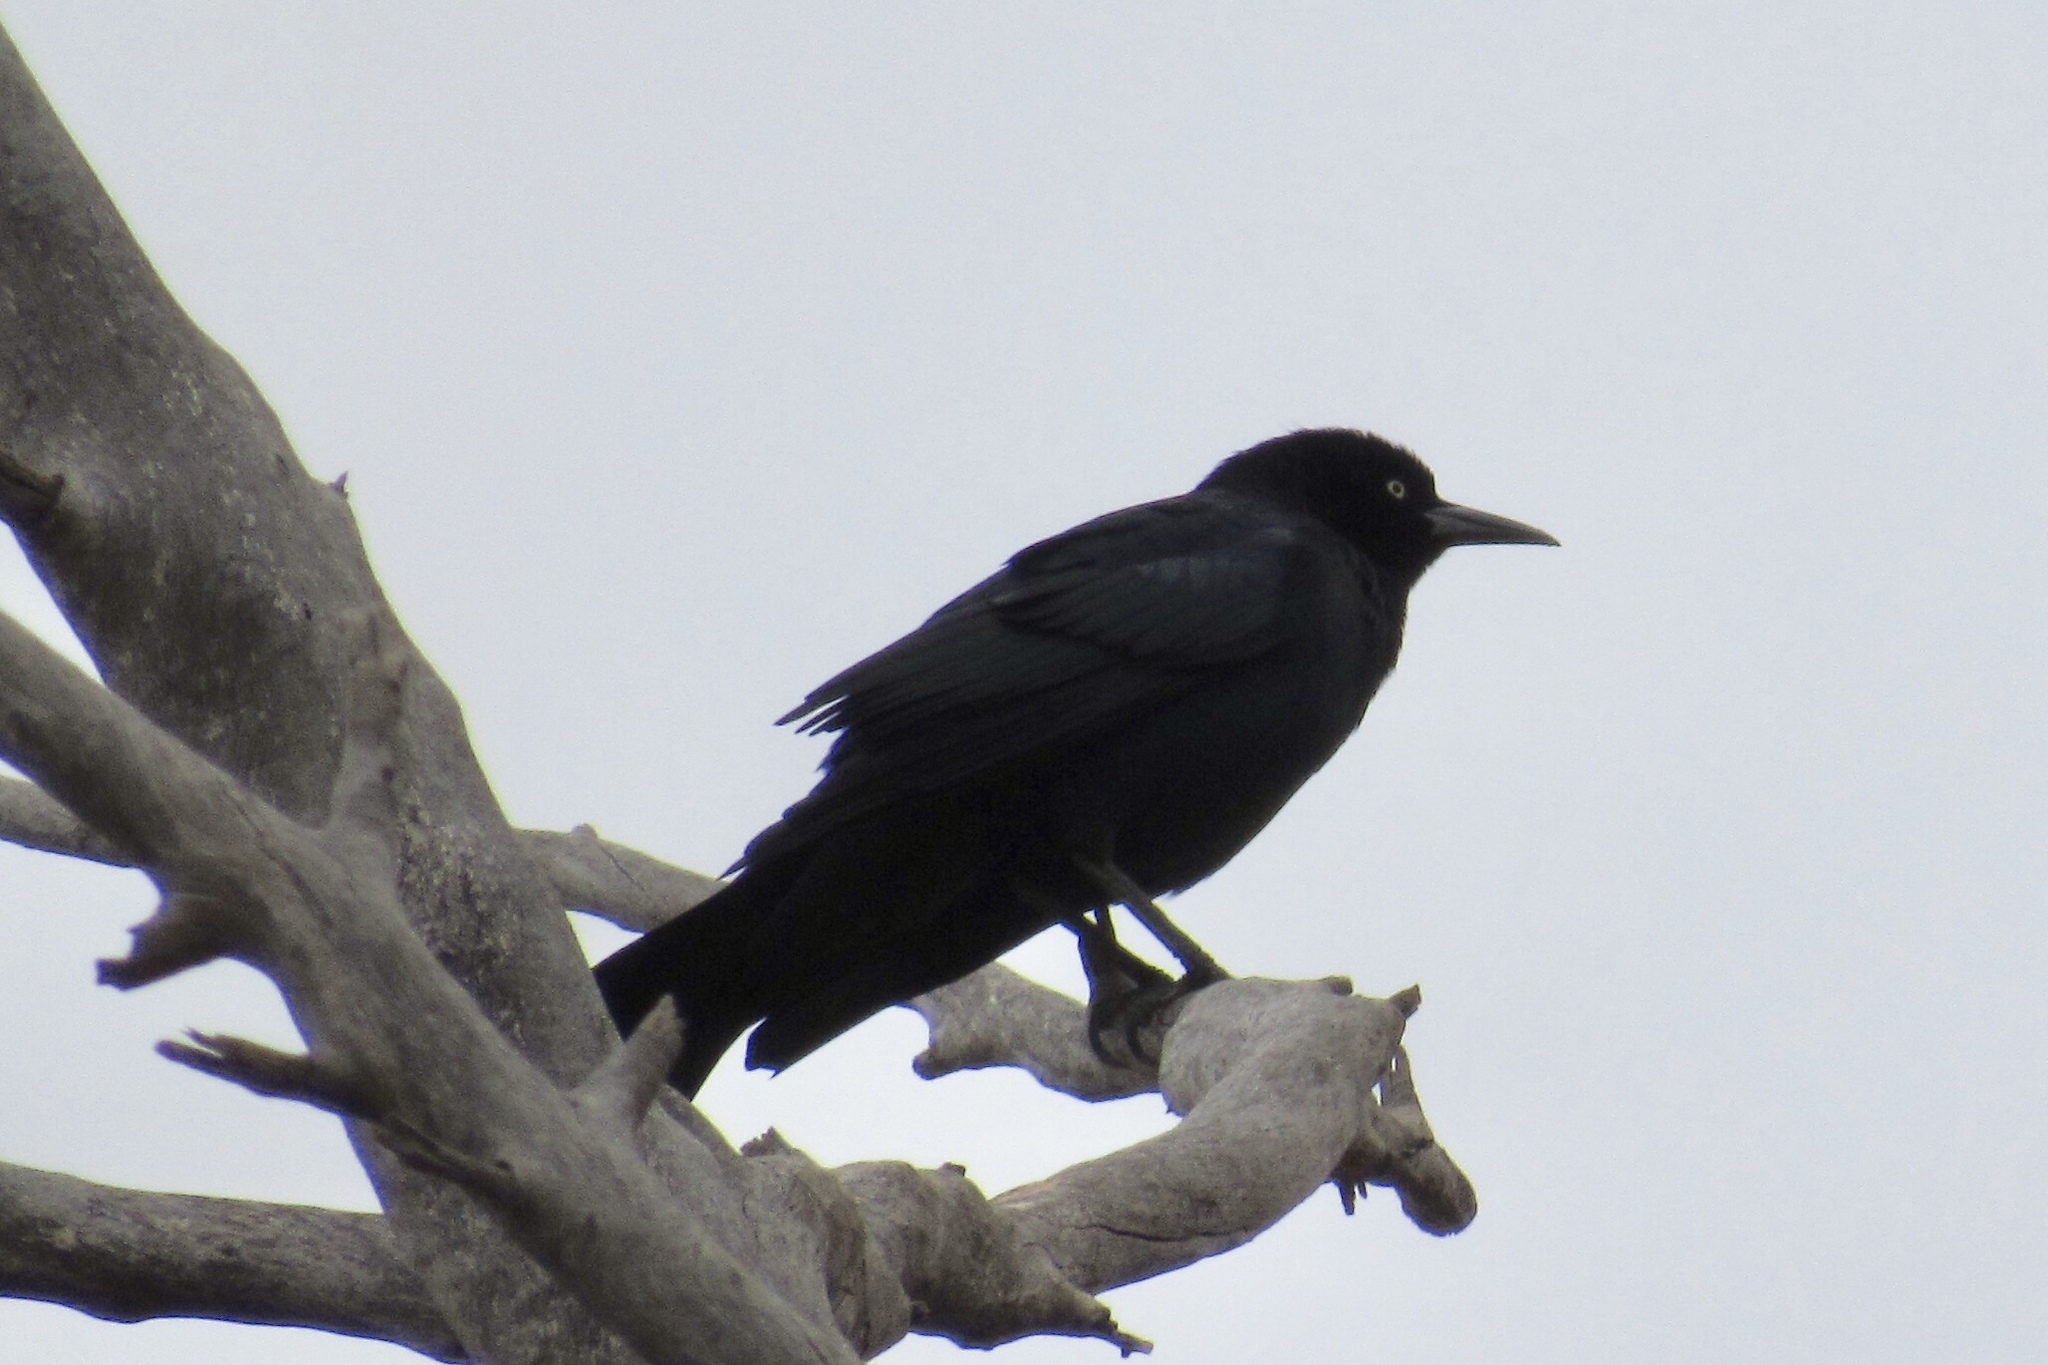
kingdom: Animalia
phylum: Chordata
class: Aves
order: Passeriformes
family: Icteridae
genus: Quiscalus
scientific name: Quiscalus mexicanus
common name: Great-tailed grackle
